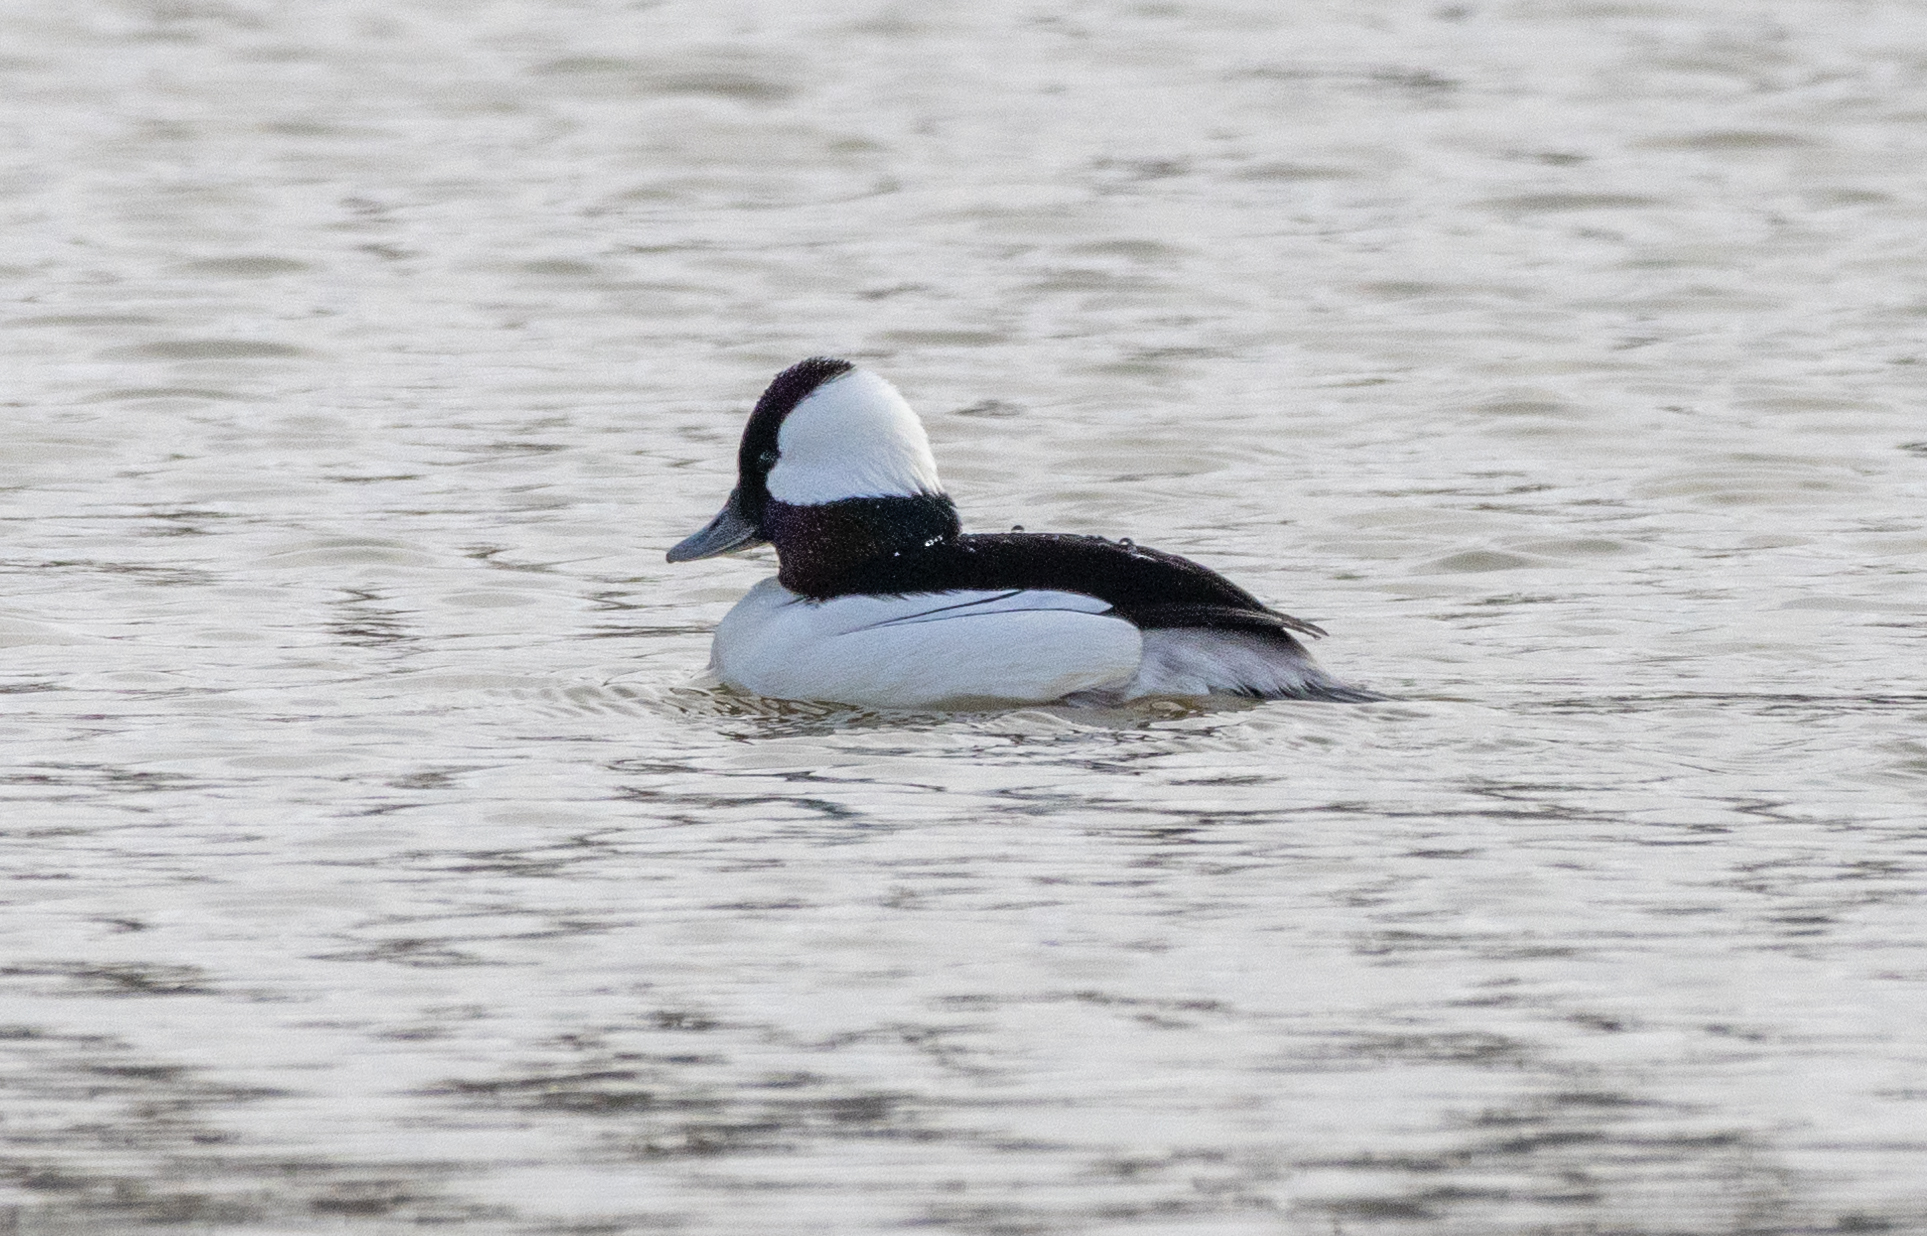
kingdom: Animalia
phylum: Chordata
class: Aves
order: Anseriformes
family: Anatidae
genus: Bucephala
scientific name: Bucephala albeola
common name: Bufflehead
